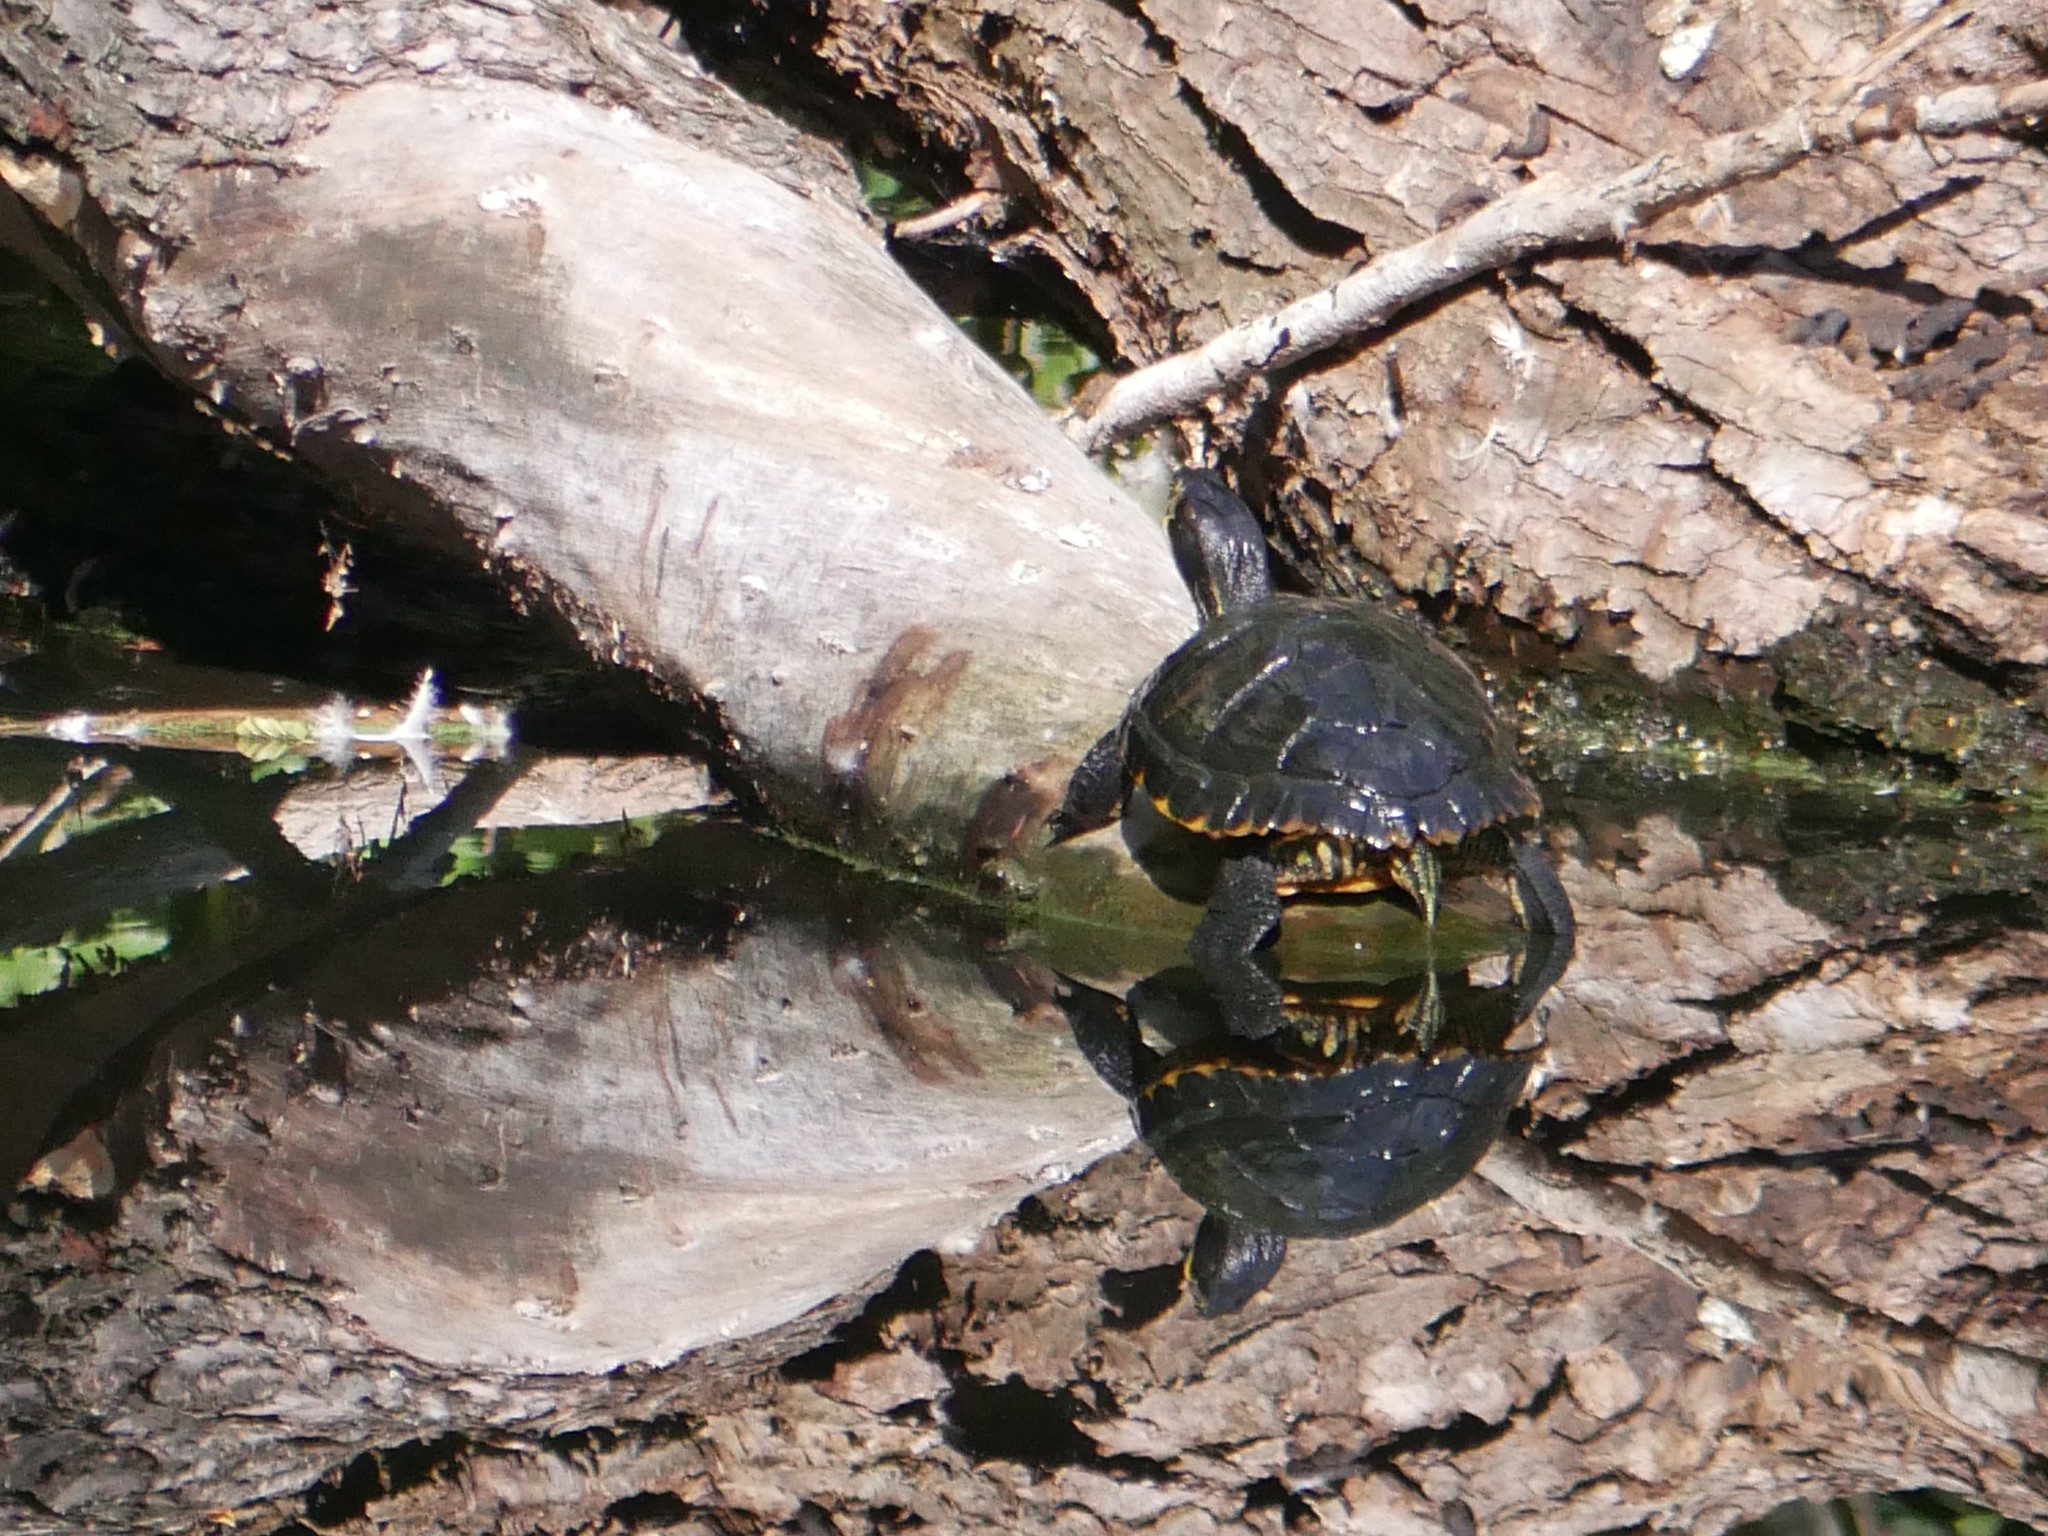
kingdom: Animalia
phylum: Chordata
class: Testudines
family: Emydidae
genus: Trachemys
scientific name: Trachemys scripta
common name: Slider
